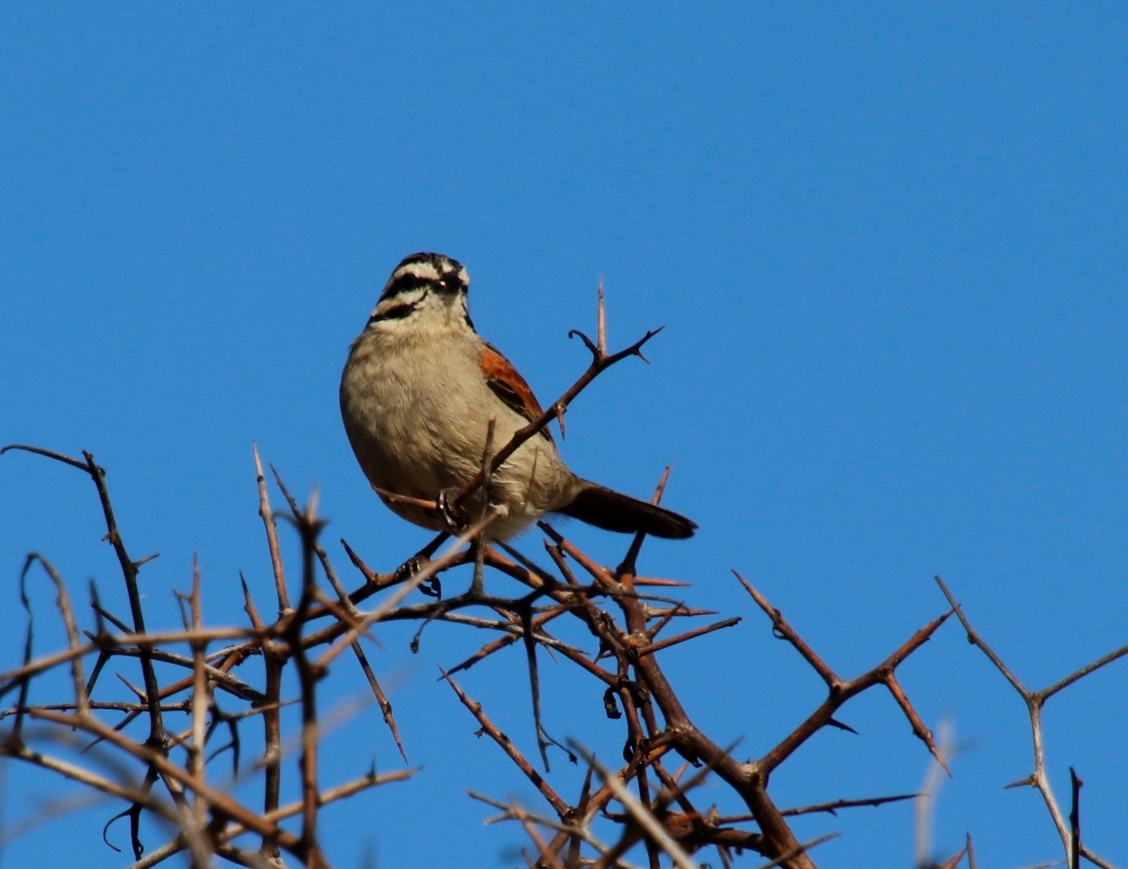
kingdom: Animalia
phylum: Chordata
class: Aves
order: Passeriformes
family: Emberizidae
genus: Emberiza
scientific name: Emberiza capensis
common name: Cape bunting
